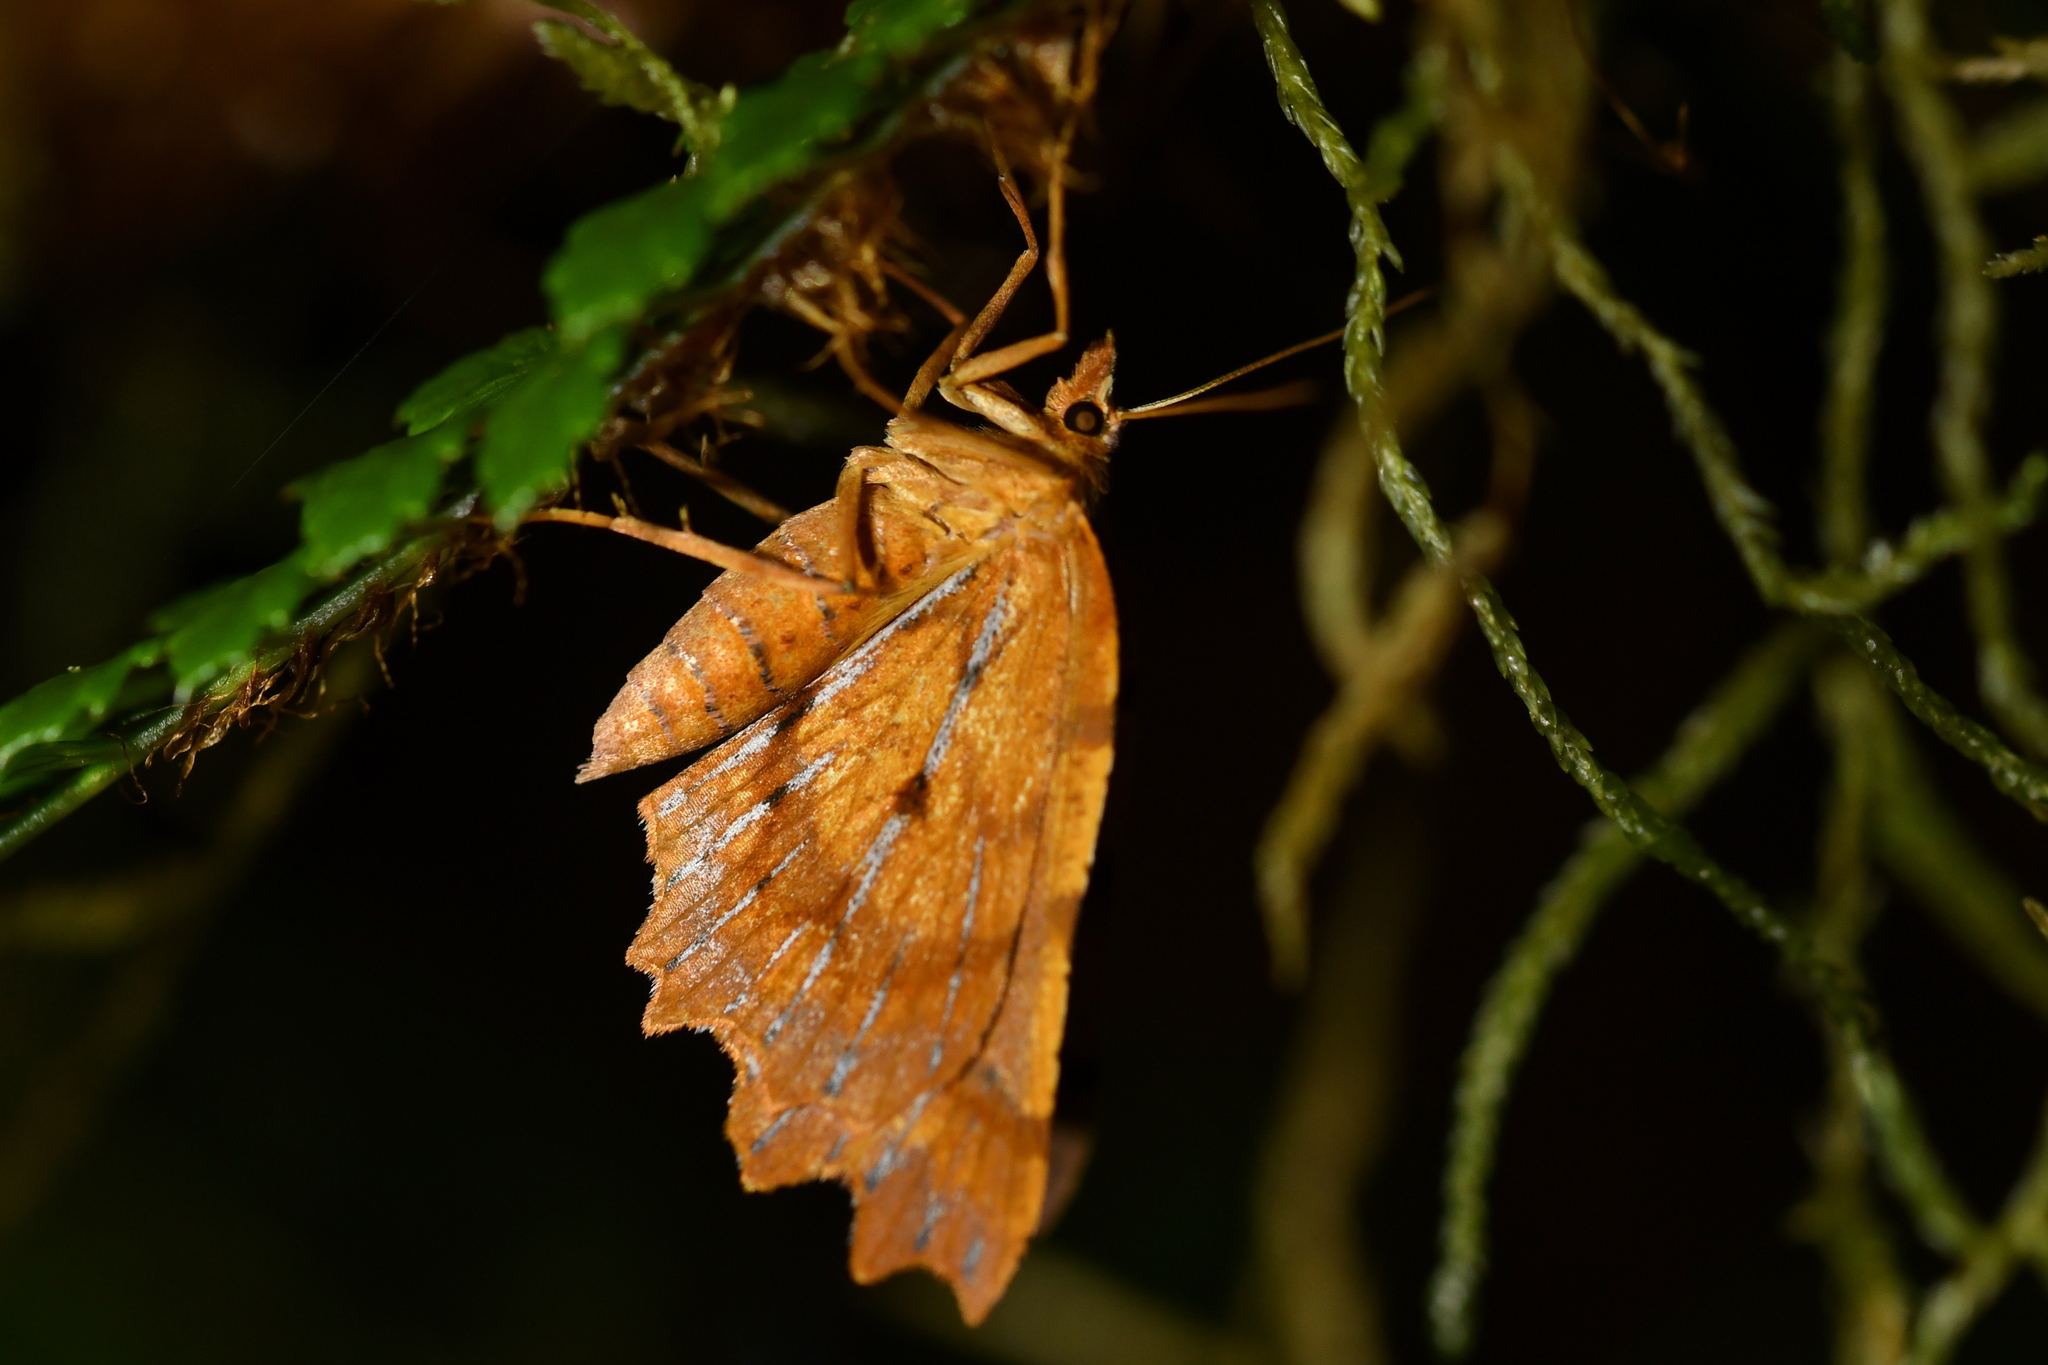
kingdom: Animalia
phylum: Arthropoda
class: Insecta
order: Lepidoptera
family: Geometridae
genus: Ischalis
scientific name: Ischalis fortinata
